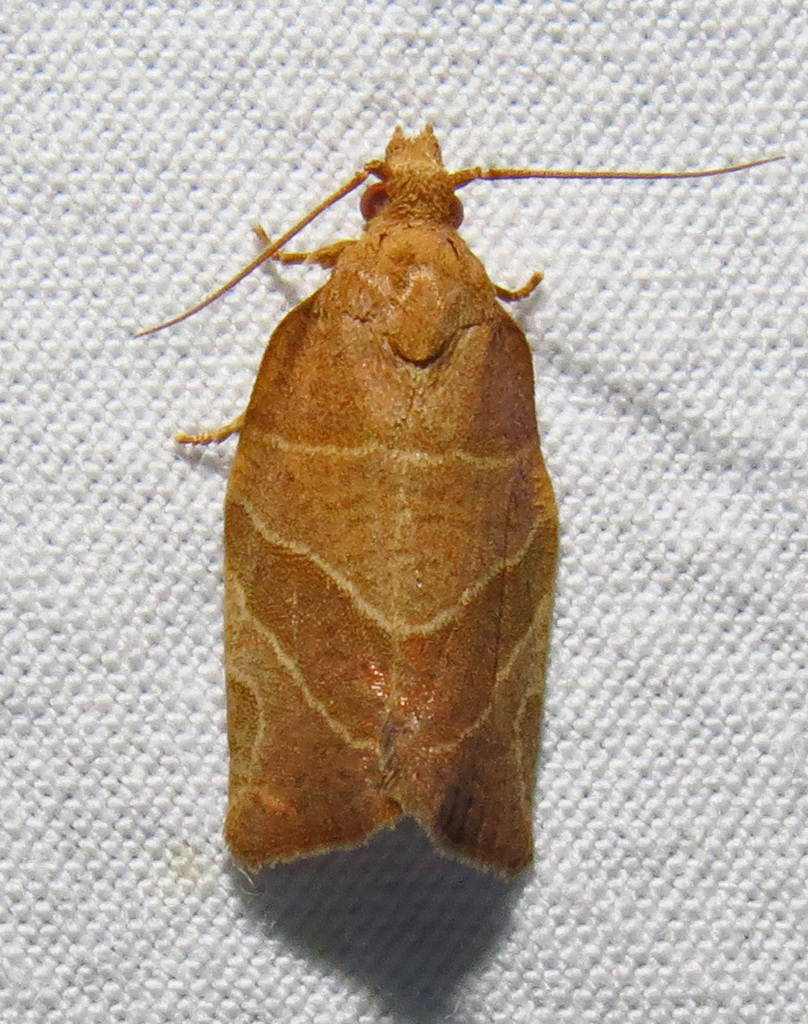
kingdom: Animalia
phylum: Arthropoda
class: Insecta
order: Lepidoptera
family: Tortricidae
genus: Pandemis
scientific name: Pandemis limitata
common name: Three-lined leafroller moth
